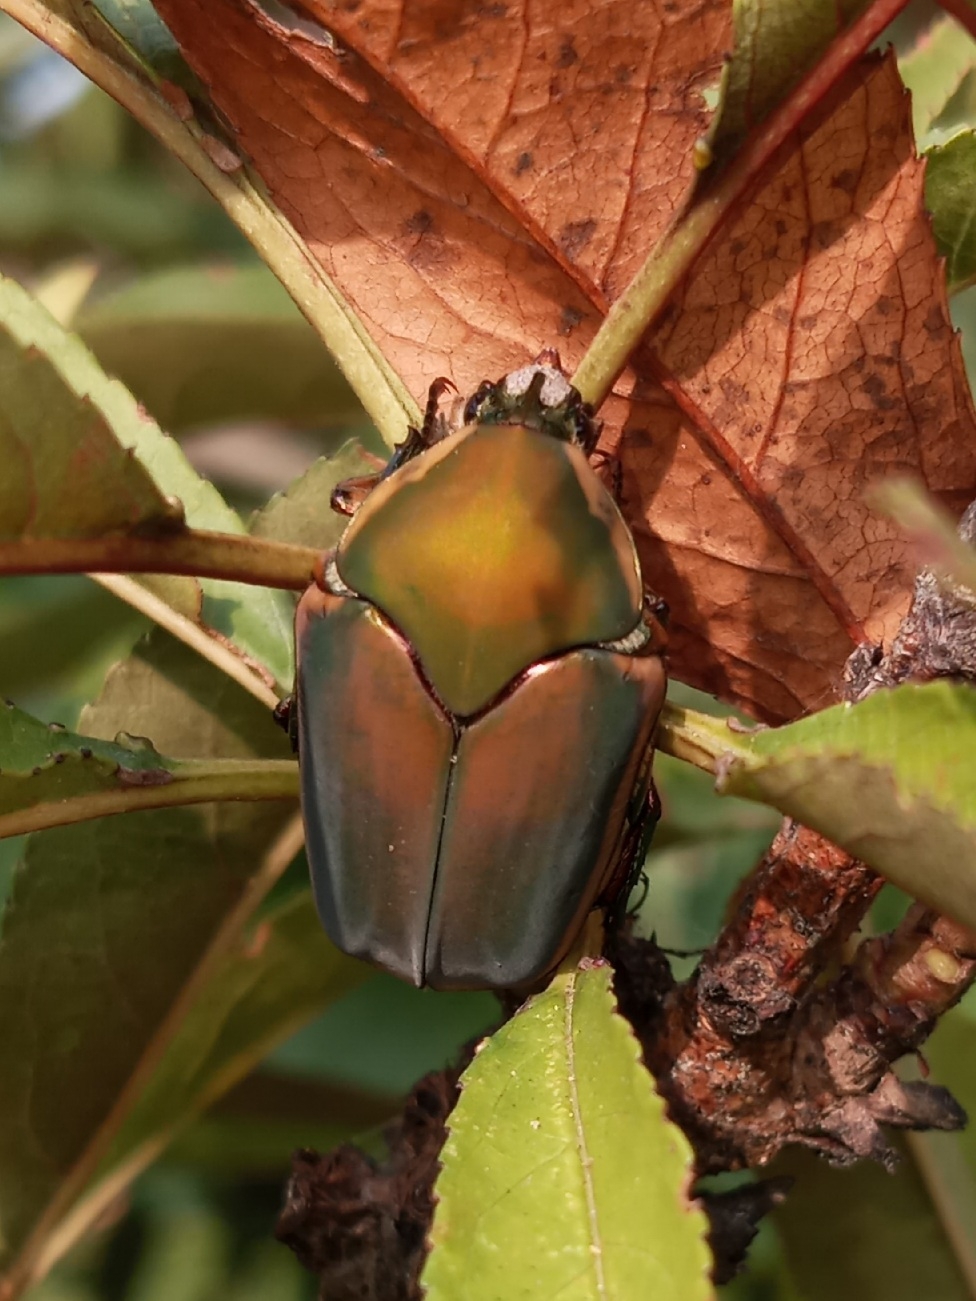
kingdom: Animalia
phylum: Arthropoda
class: Insecta
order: Coleoptera
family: Scarabaeidae
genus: Cotinis
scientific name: Cotinis nitida
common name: Common green june beetle
